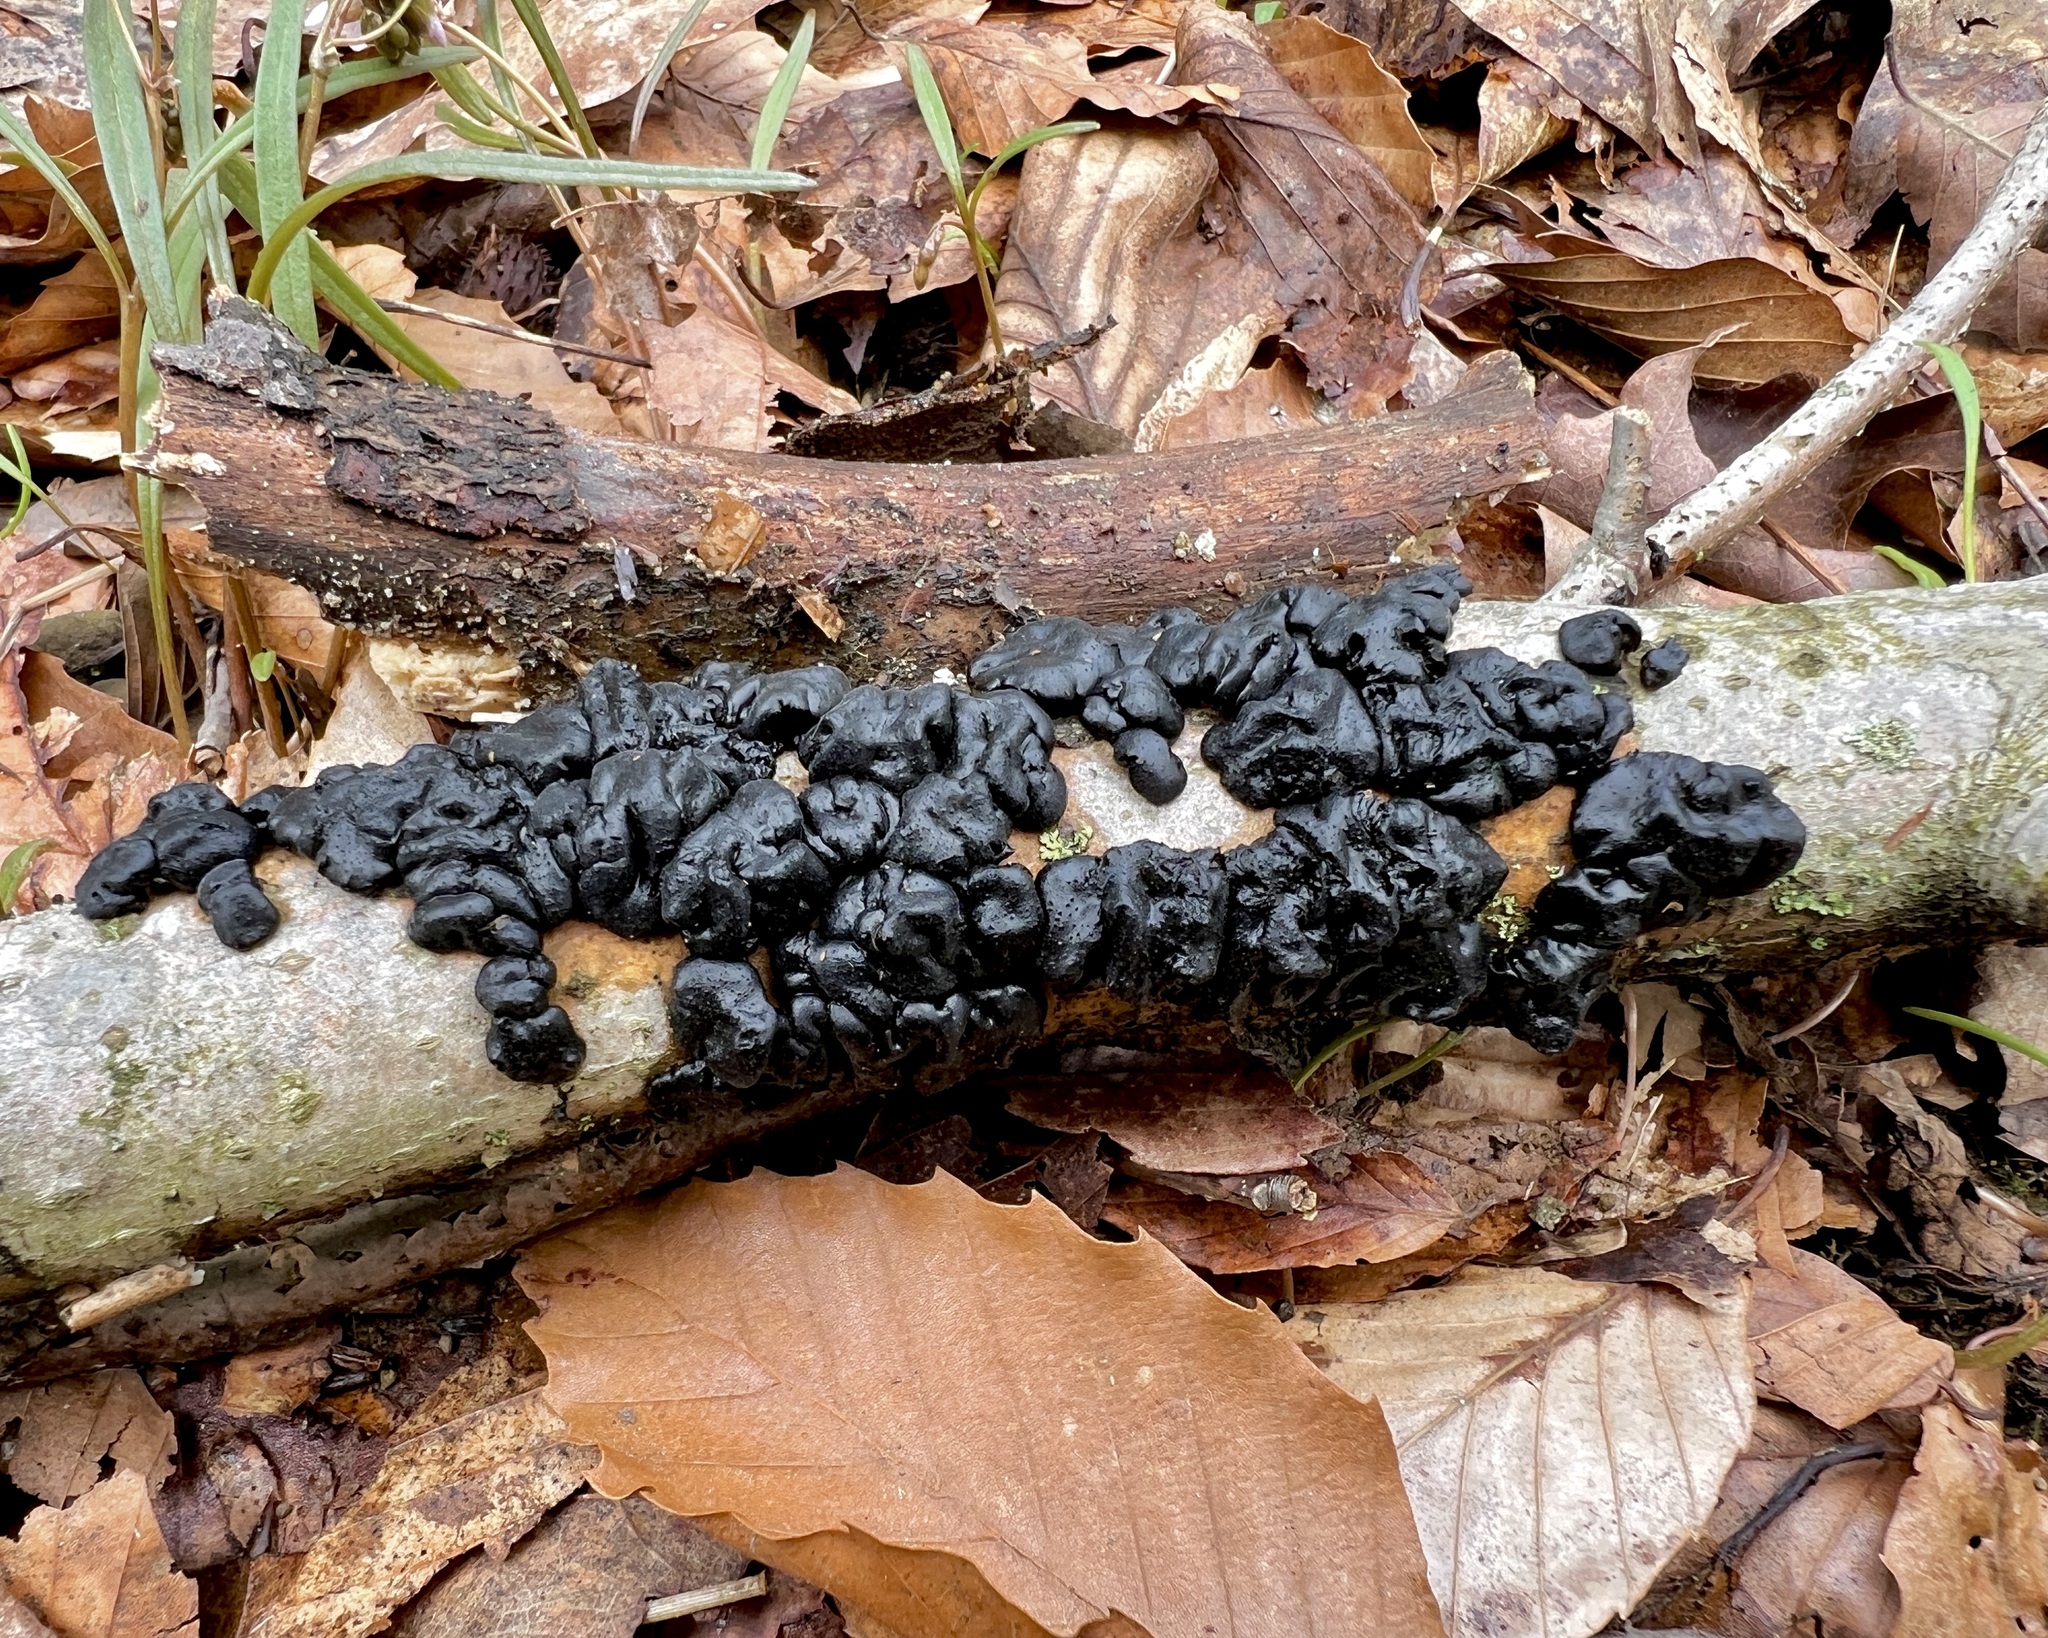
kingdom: Fungi
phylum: Basidiomycota
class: Agaricomycetes
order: Auriculariales
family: Auriculariaceae
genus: Exidia
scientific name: Exidia glandulosa
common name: Witches' butter
